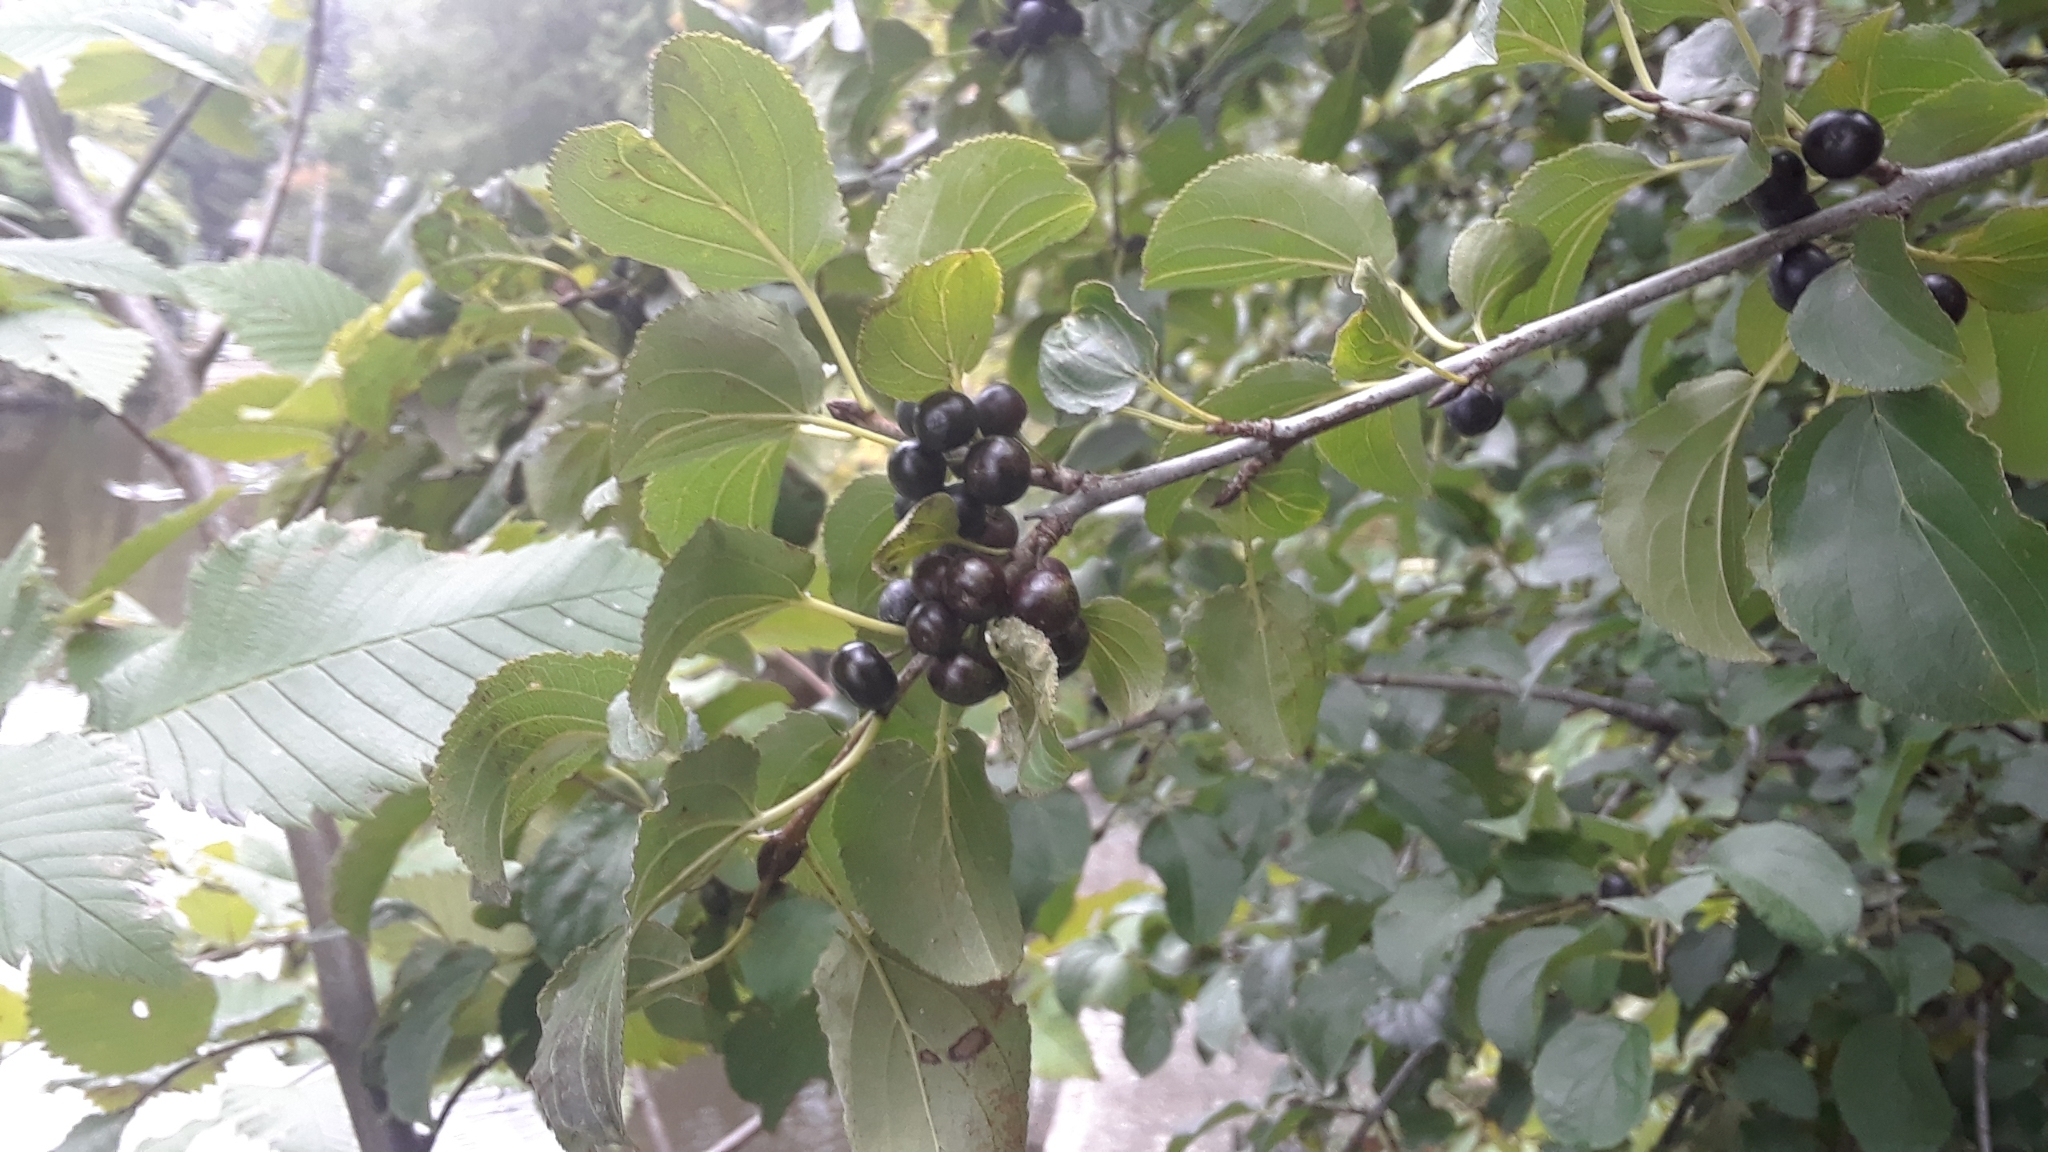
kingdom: Plantae
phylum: Tracheophyta
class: Magnoliopsida
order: Rosales
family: Rhamnaceae
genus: Rhamnus
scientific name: Rhamnus cathartica
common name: Common buckthorn
